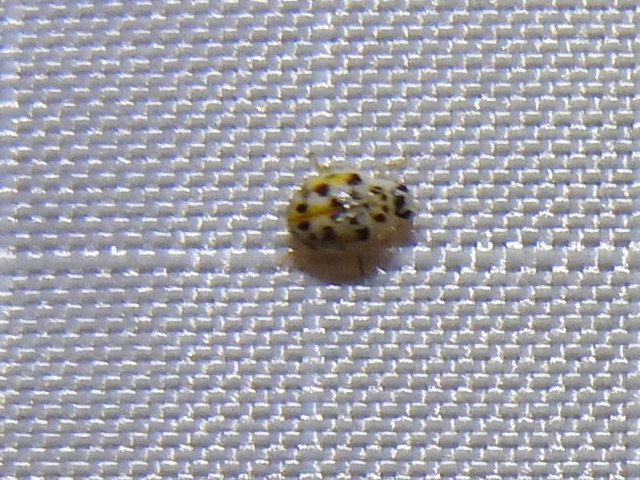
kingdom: Animalia
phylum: Arthropoda
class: Insecta
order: Coleoptera
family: Coccinellidae
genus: Psyllobora
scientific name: Psyllobora vigintimaculata
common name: Ladybird beetle
